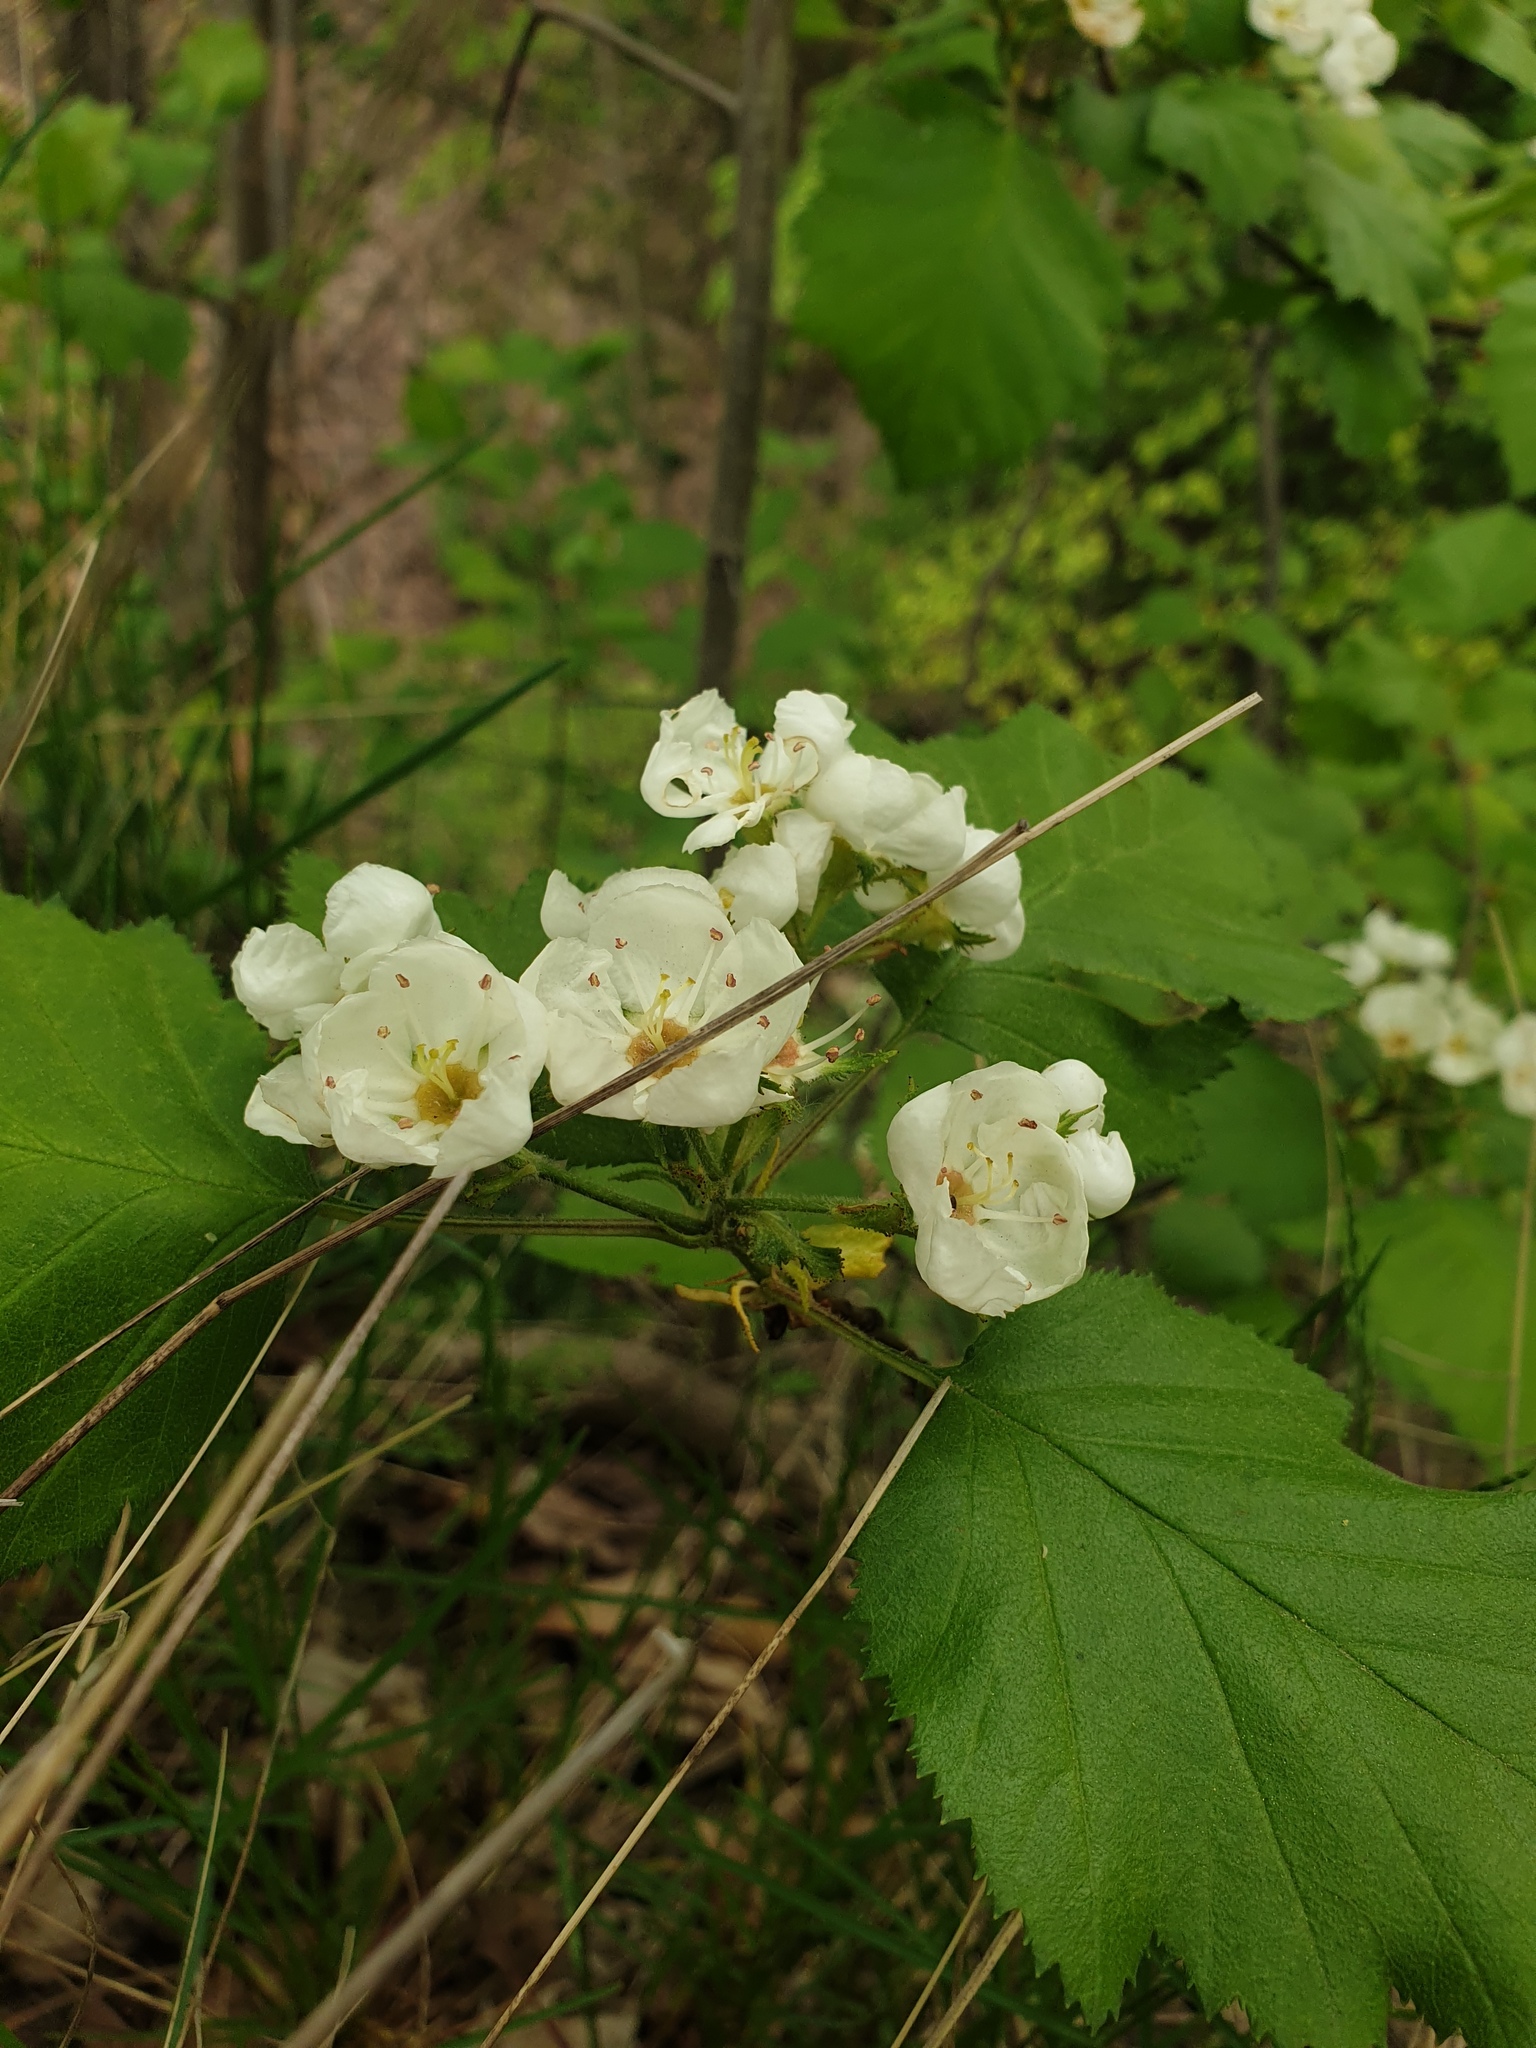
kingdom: Plantae
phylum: Tracheophyta
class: Magnoliopsida
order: Rosales
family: Rosaceae
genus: Crataegus
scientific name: Crataegus pennsylvanica
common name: Pennsylvania hawthorn
